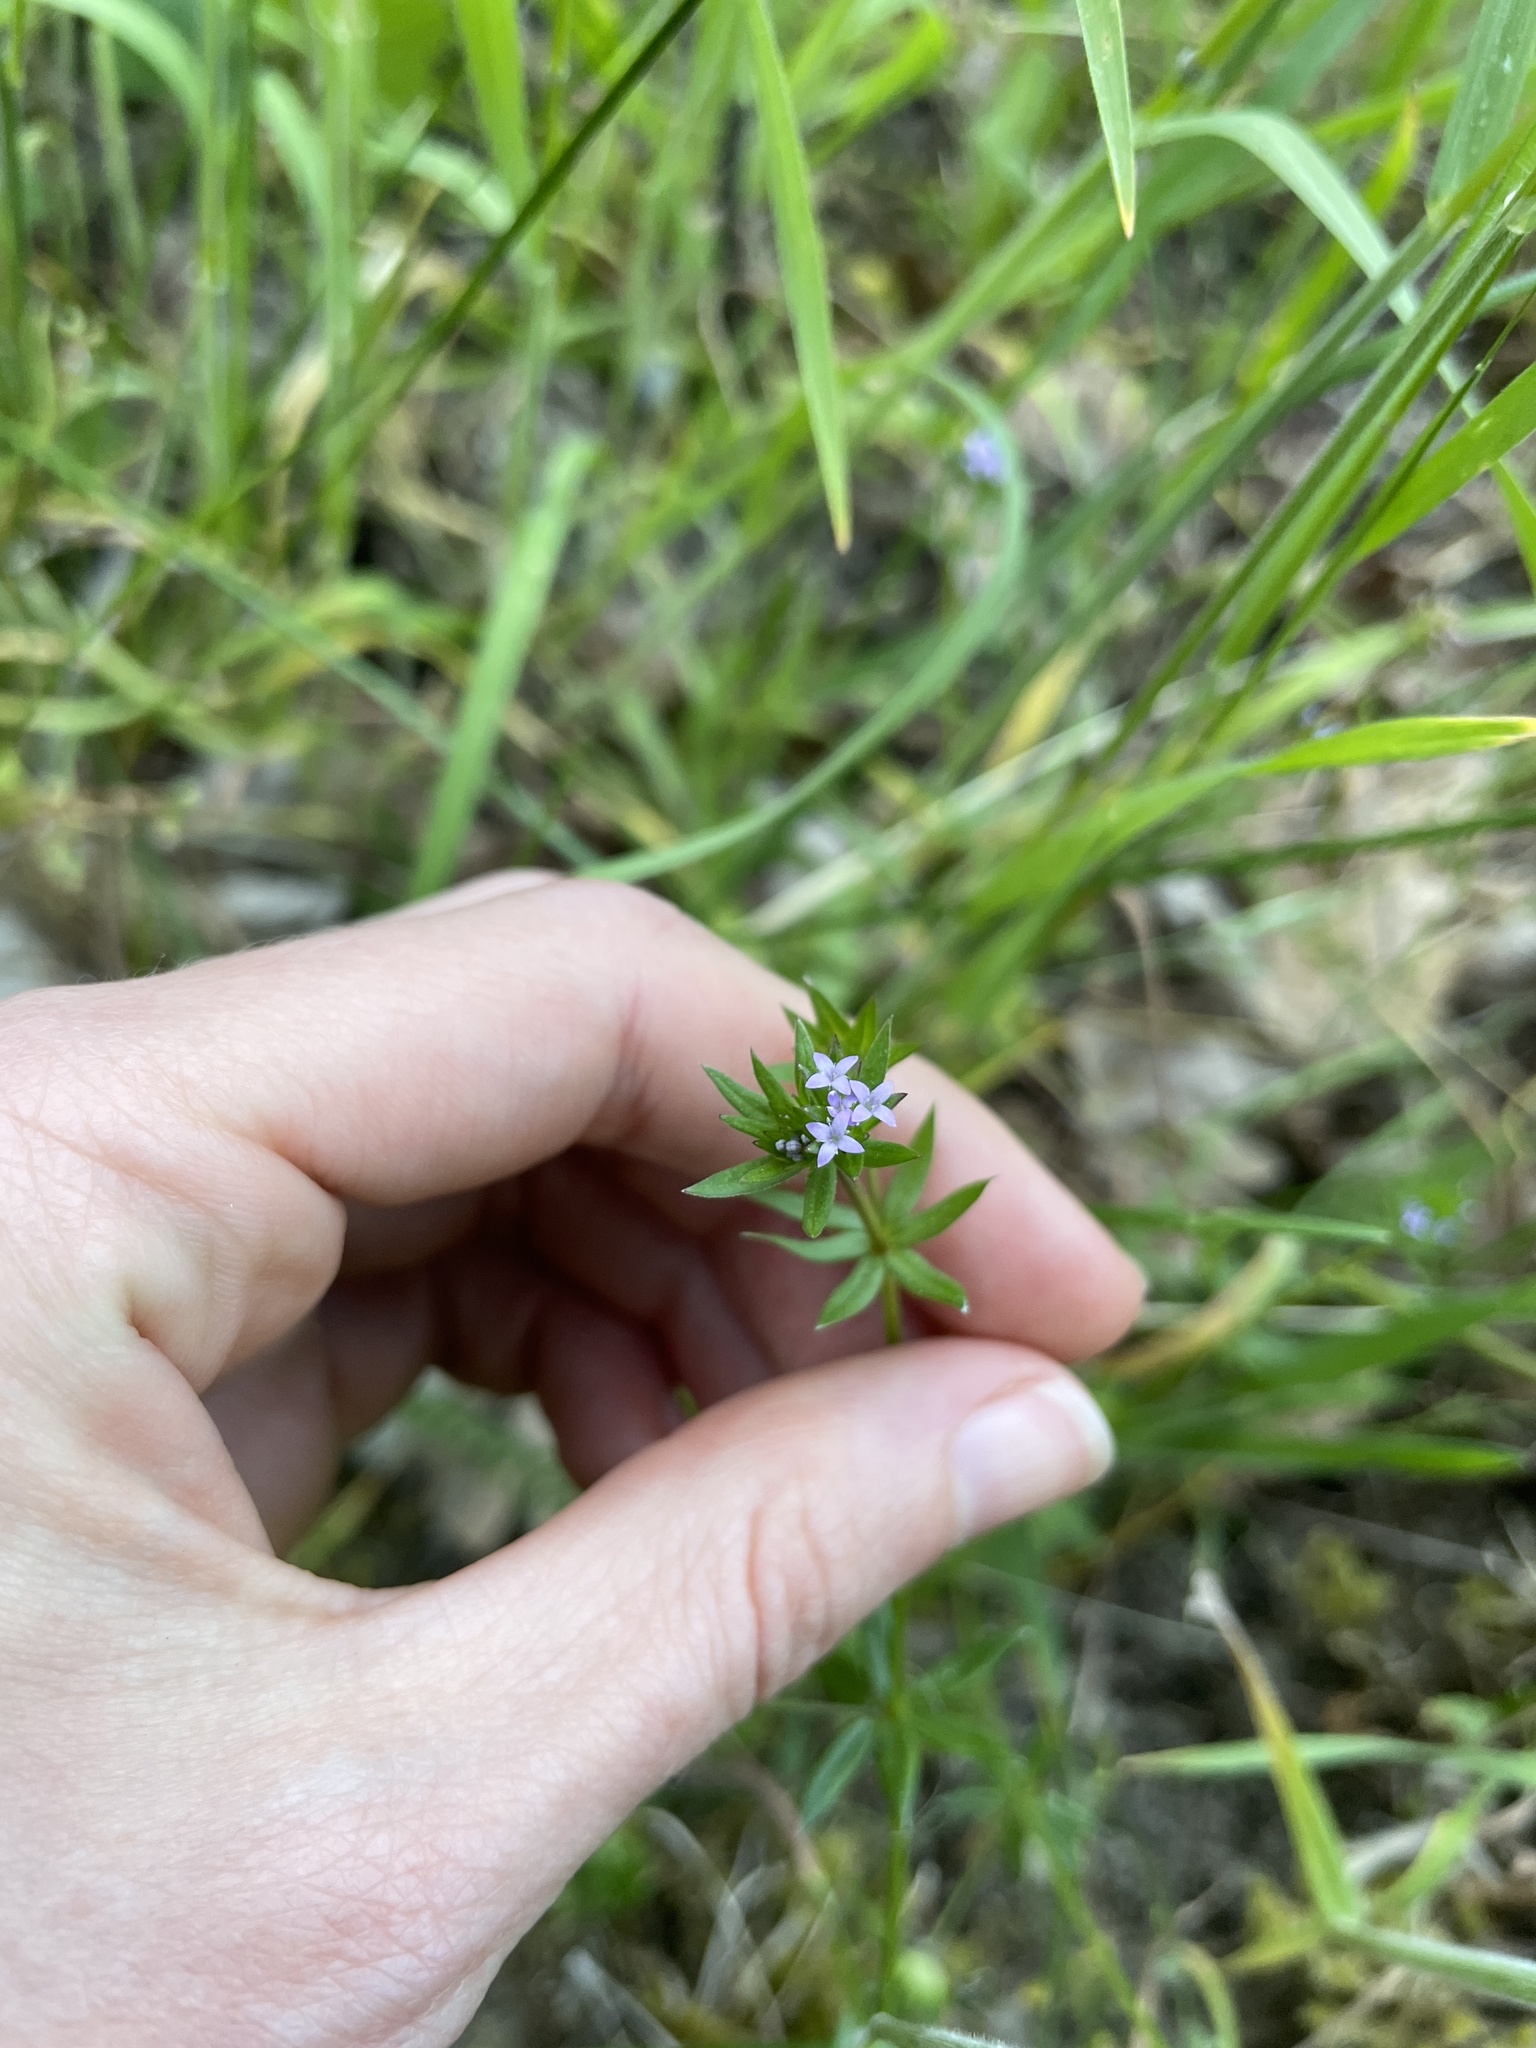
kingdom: Plantae
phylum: Tracheophyta
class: Magnoliopsida
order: Gentianales
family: Rubiaceae
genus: Sherardia
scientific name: Sherardia arvensis
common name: Field madder
